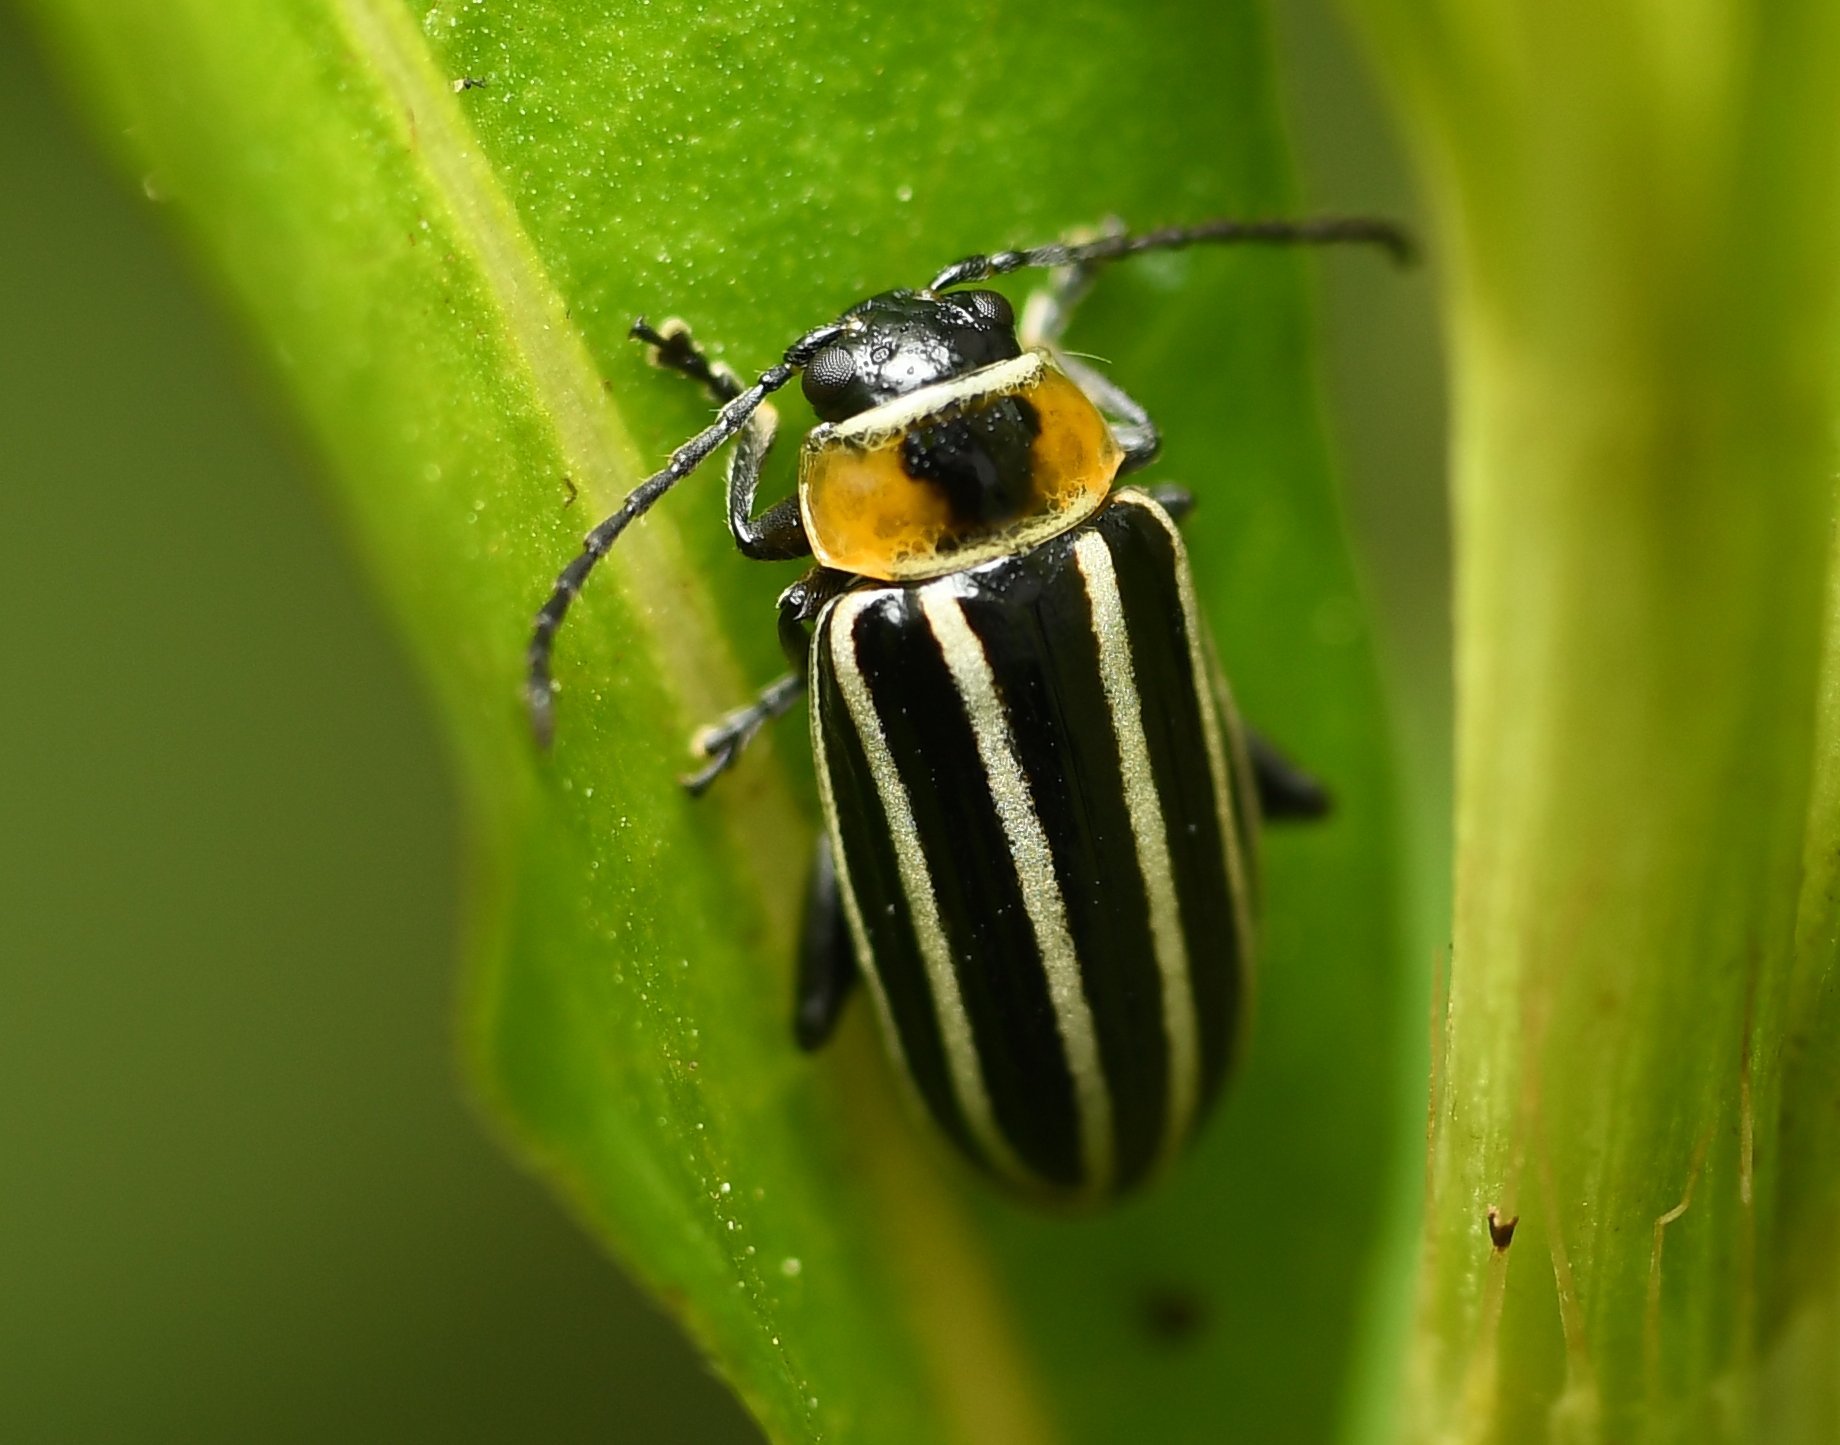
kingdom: Animalia
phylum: Arthropoda
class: Insecta
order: Coleoptera
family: Chrysomelidae
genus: Disonycha
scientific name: Disonycha pensylvanica
